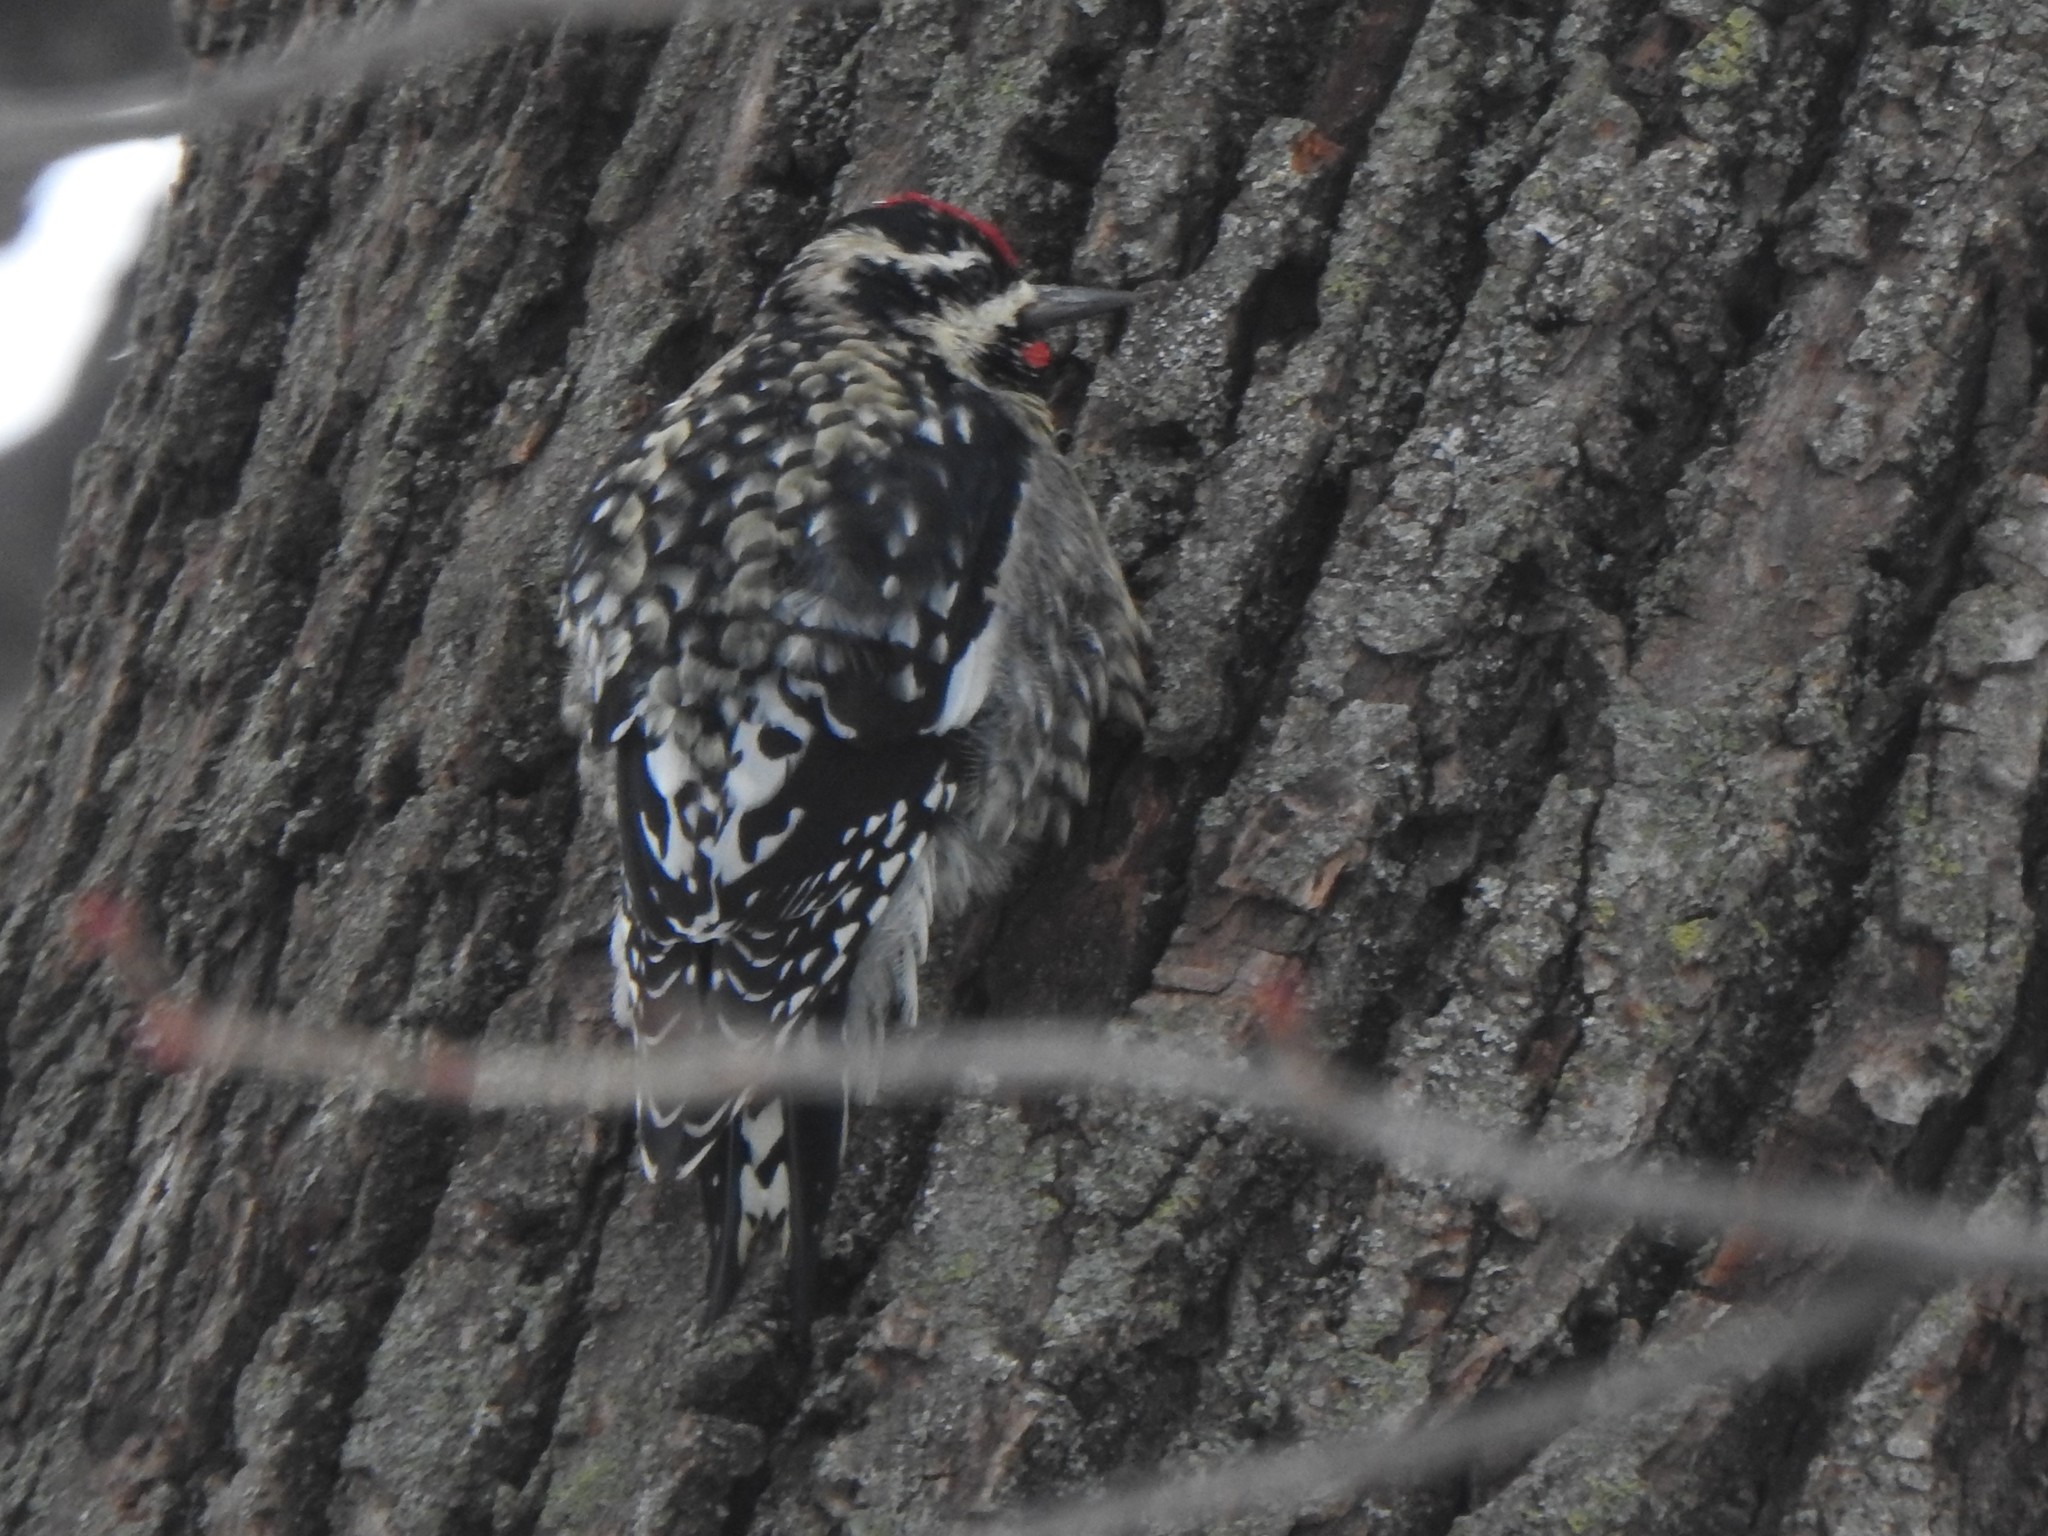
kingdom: Animalia
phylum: Chordata
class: Aves
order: Piciformes
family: Picidae
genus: Sphyrapicus
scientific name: Sphyrapicus varius
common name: Yellow-bellied sapsucker
